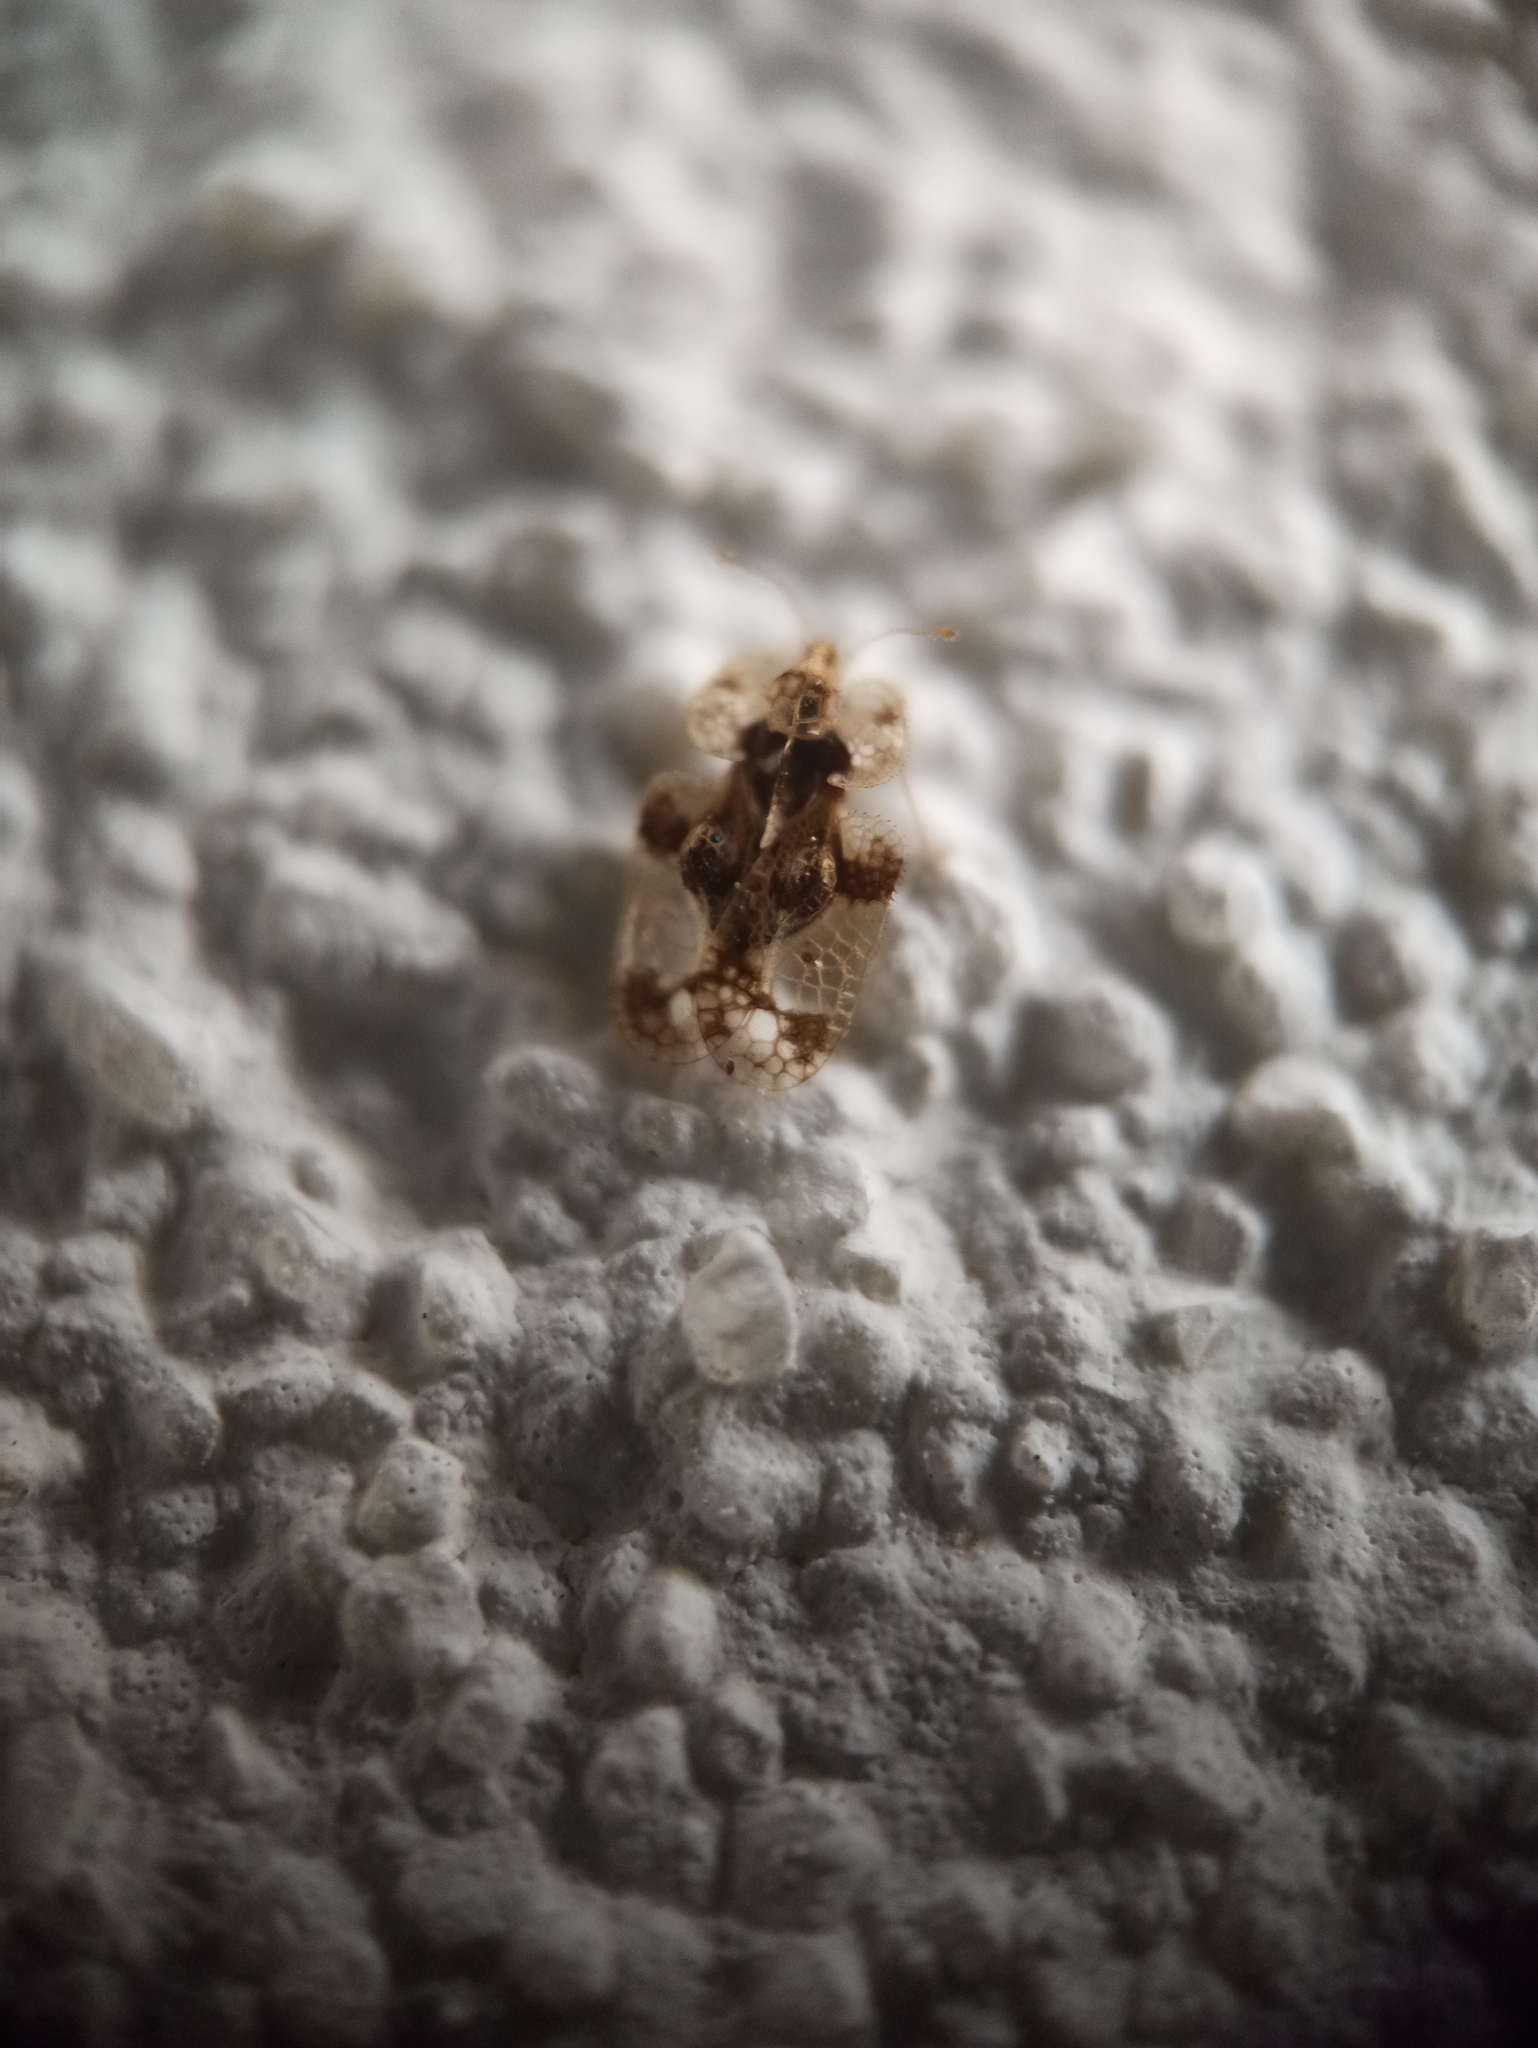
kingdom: Animalia
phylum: Arthropoda
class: Insecta
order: Hemiptera
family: Tingidae
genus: Corythucha
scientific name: Corythucha arcuata
